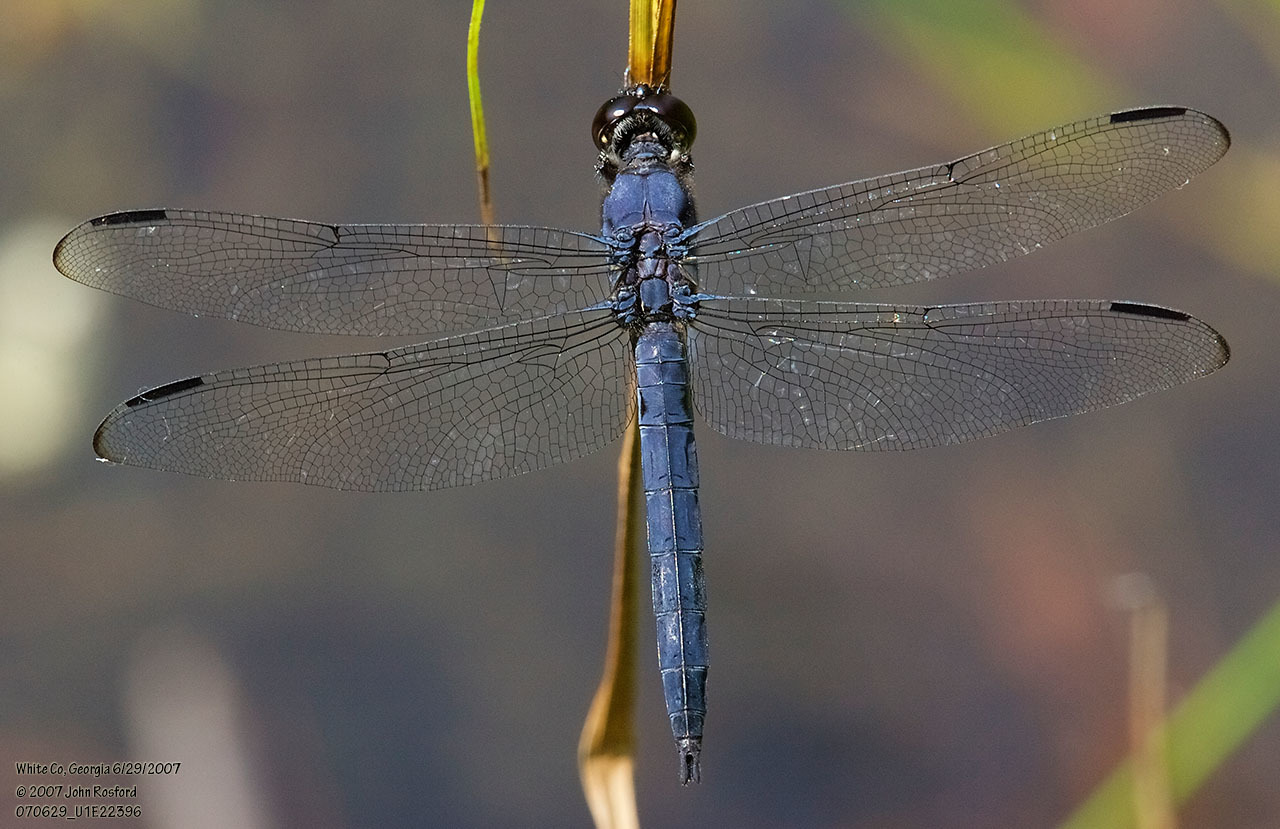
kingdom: Animalia
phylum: Arthropoda
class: Insecta
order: Odonata
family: Libellulidae
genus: Libellula
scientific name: Libellula incesta
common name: Slaty skimmer
